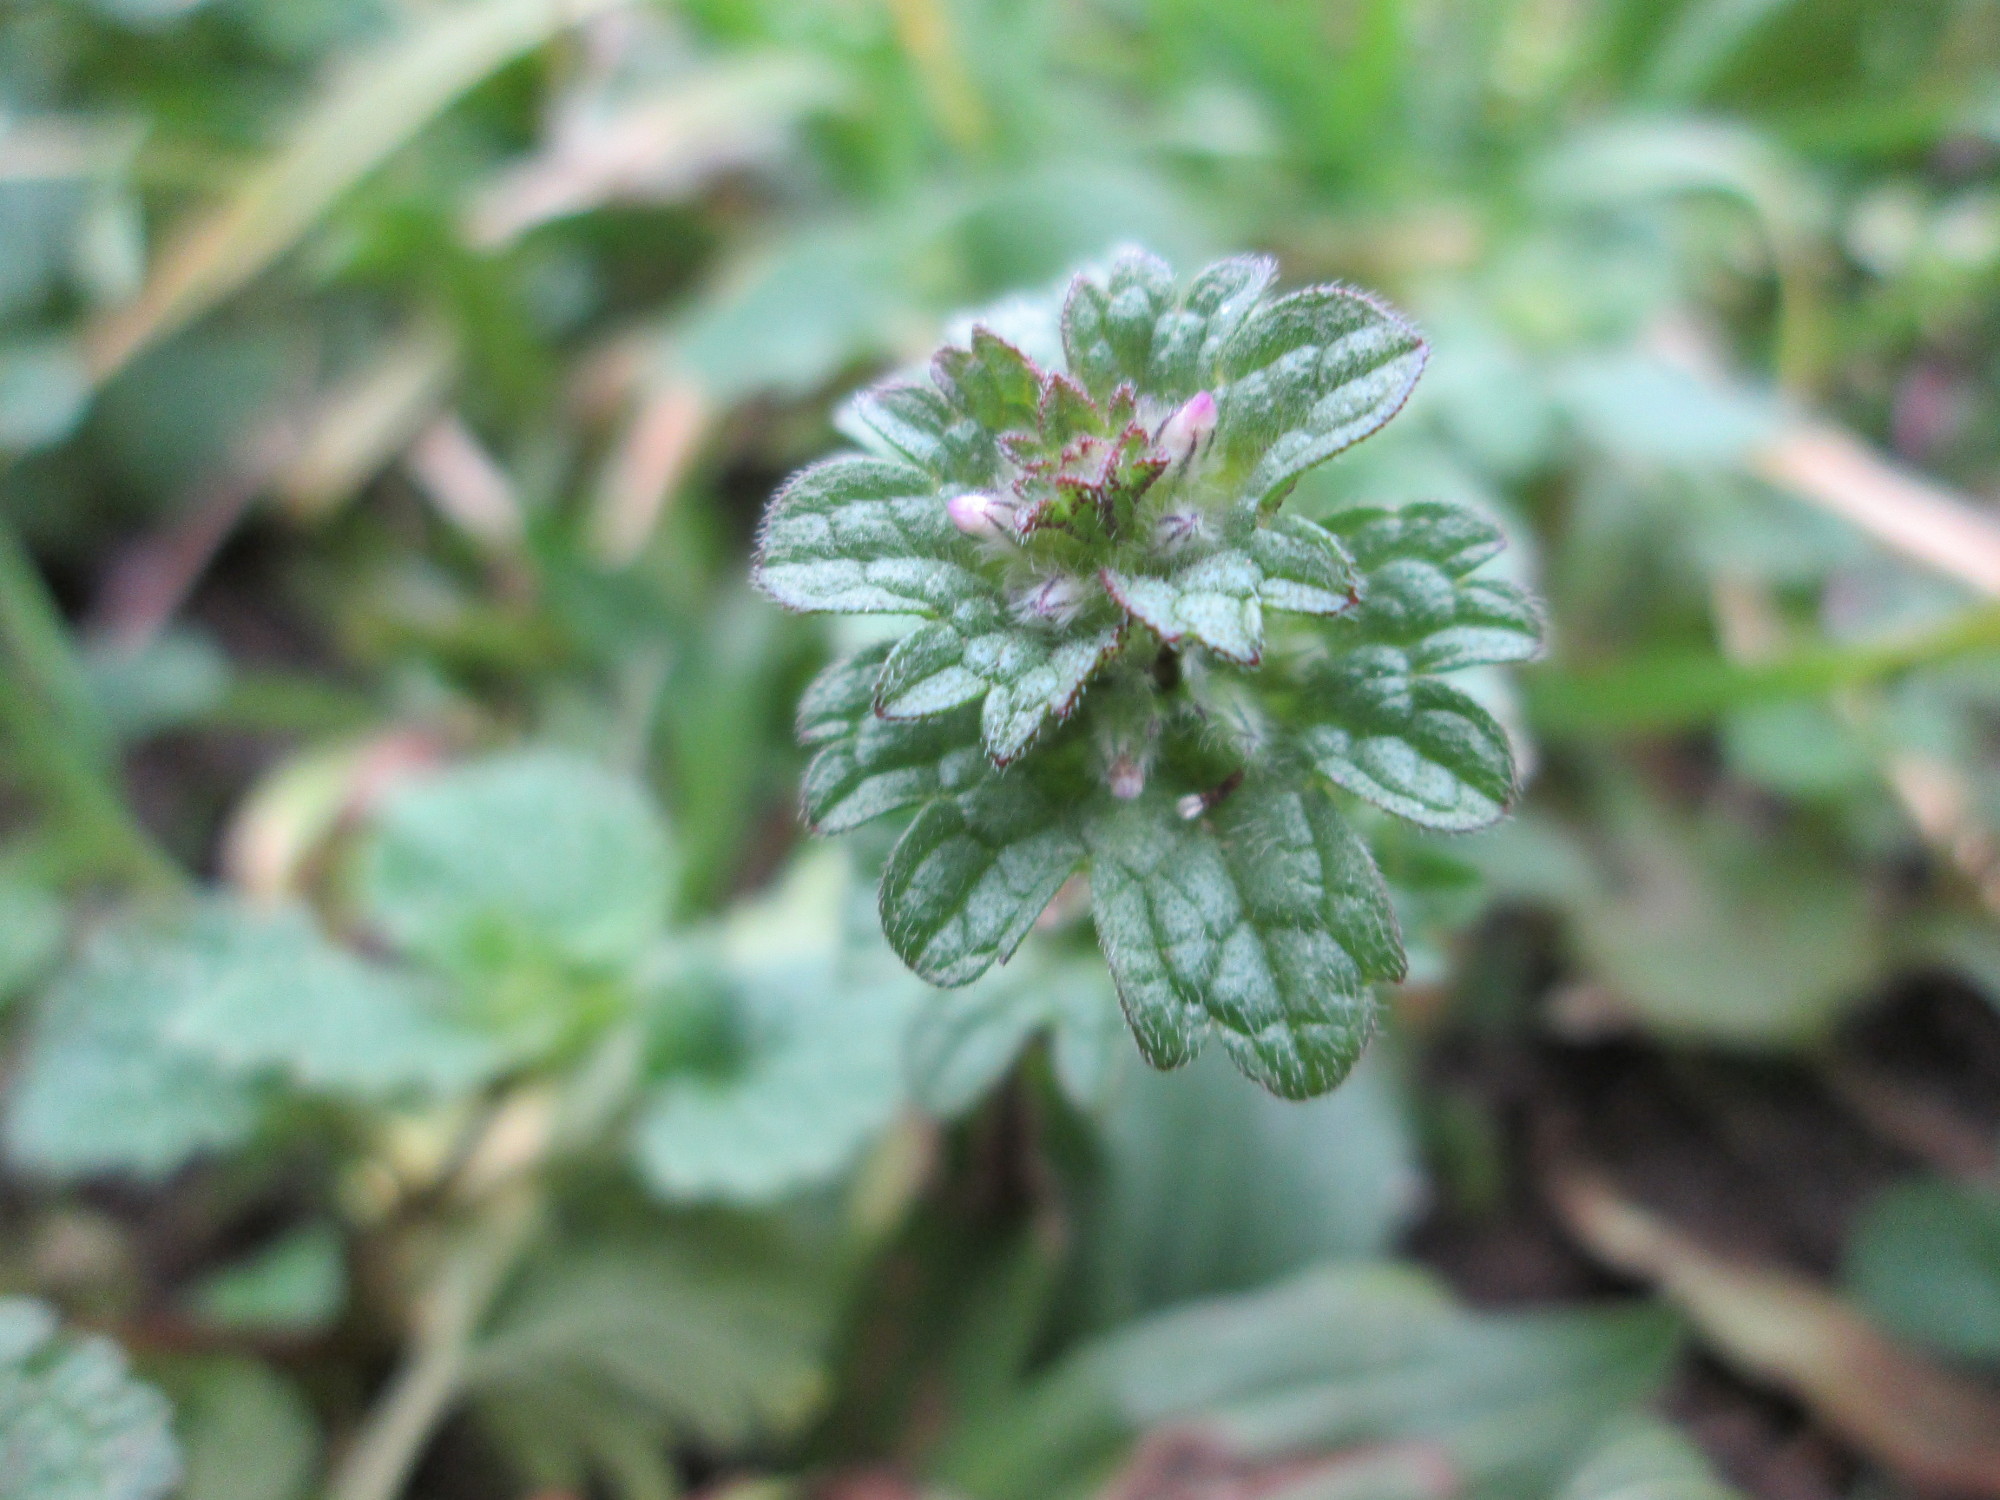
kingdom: Plantae
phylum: Tracheophyta
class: Magnoliopsida
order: Lamiales
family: Lamiaceae
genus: Lamium
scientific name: Lamium amplexicaule
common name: Henbit dead-nettle
